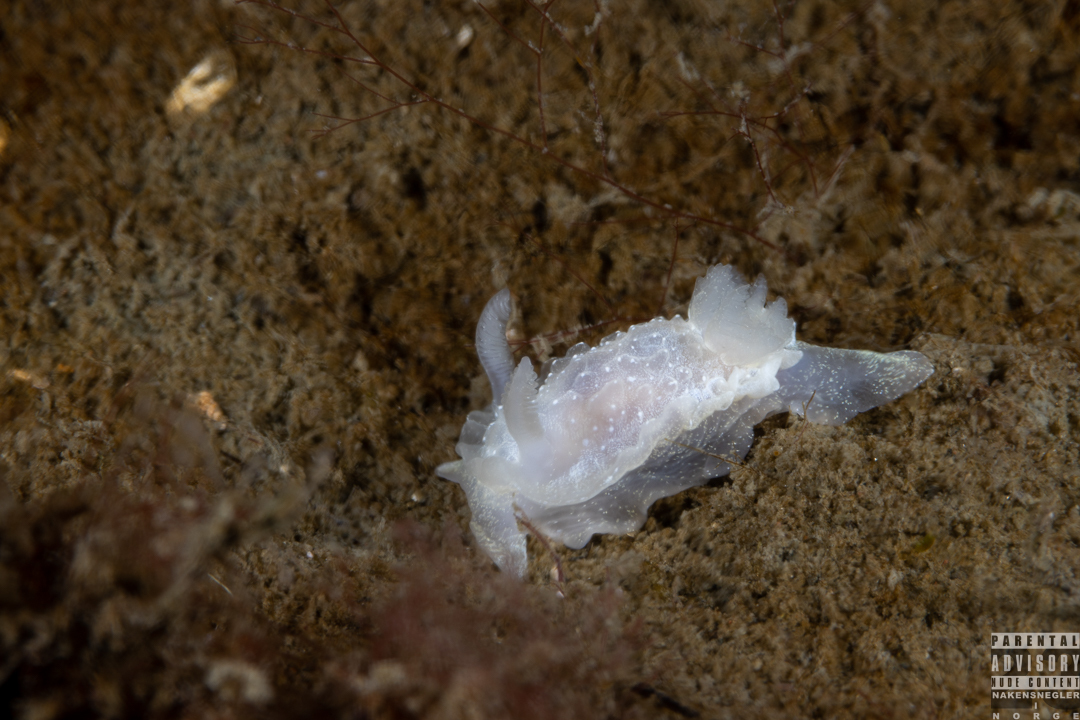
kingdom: Animalia
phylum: Mollusca
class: Gastropoda
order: Nudibranchia
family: Goniodorididae
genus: Okenia
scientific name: Okenia
